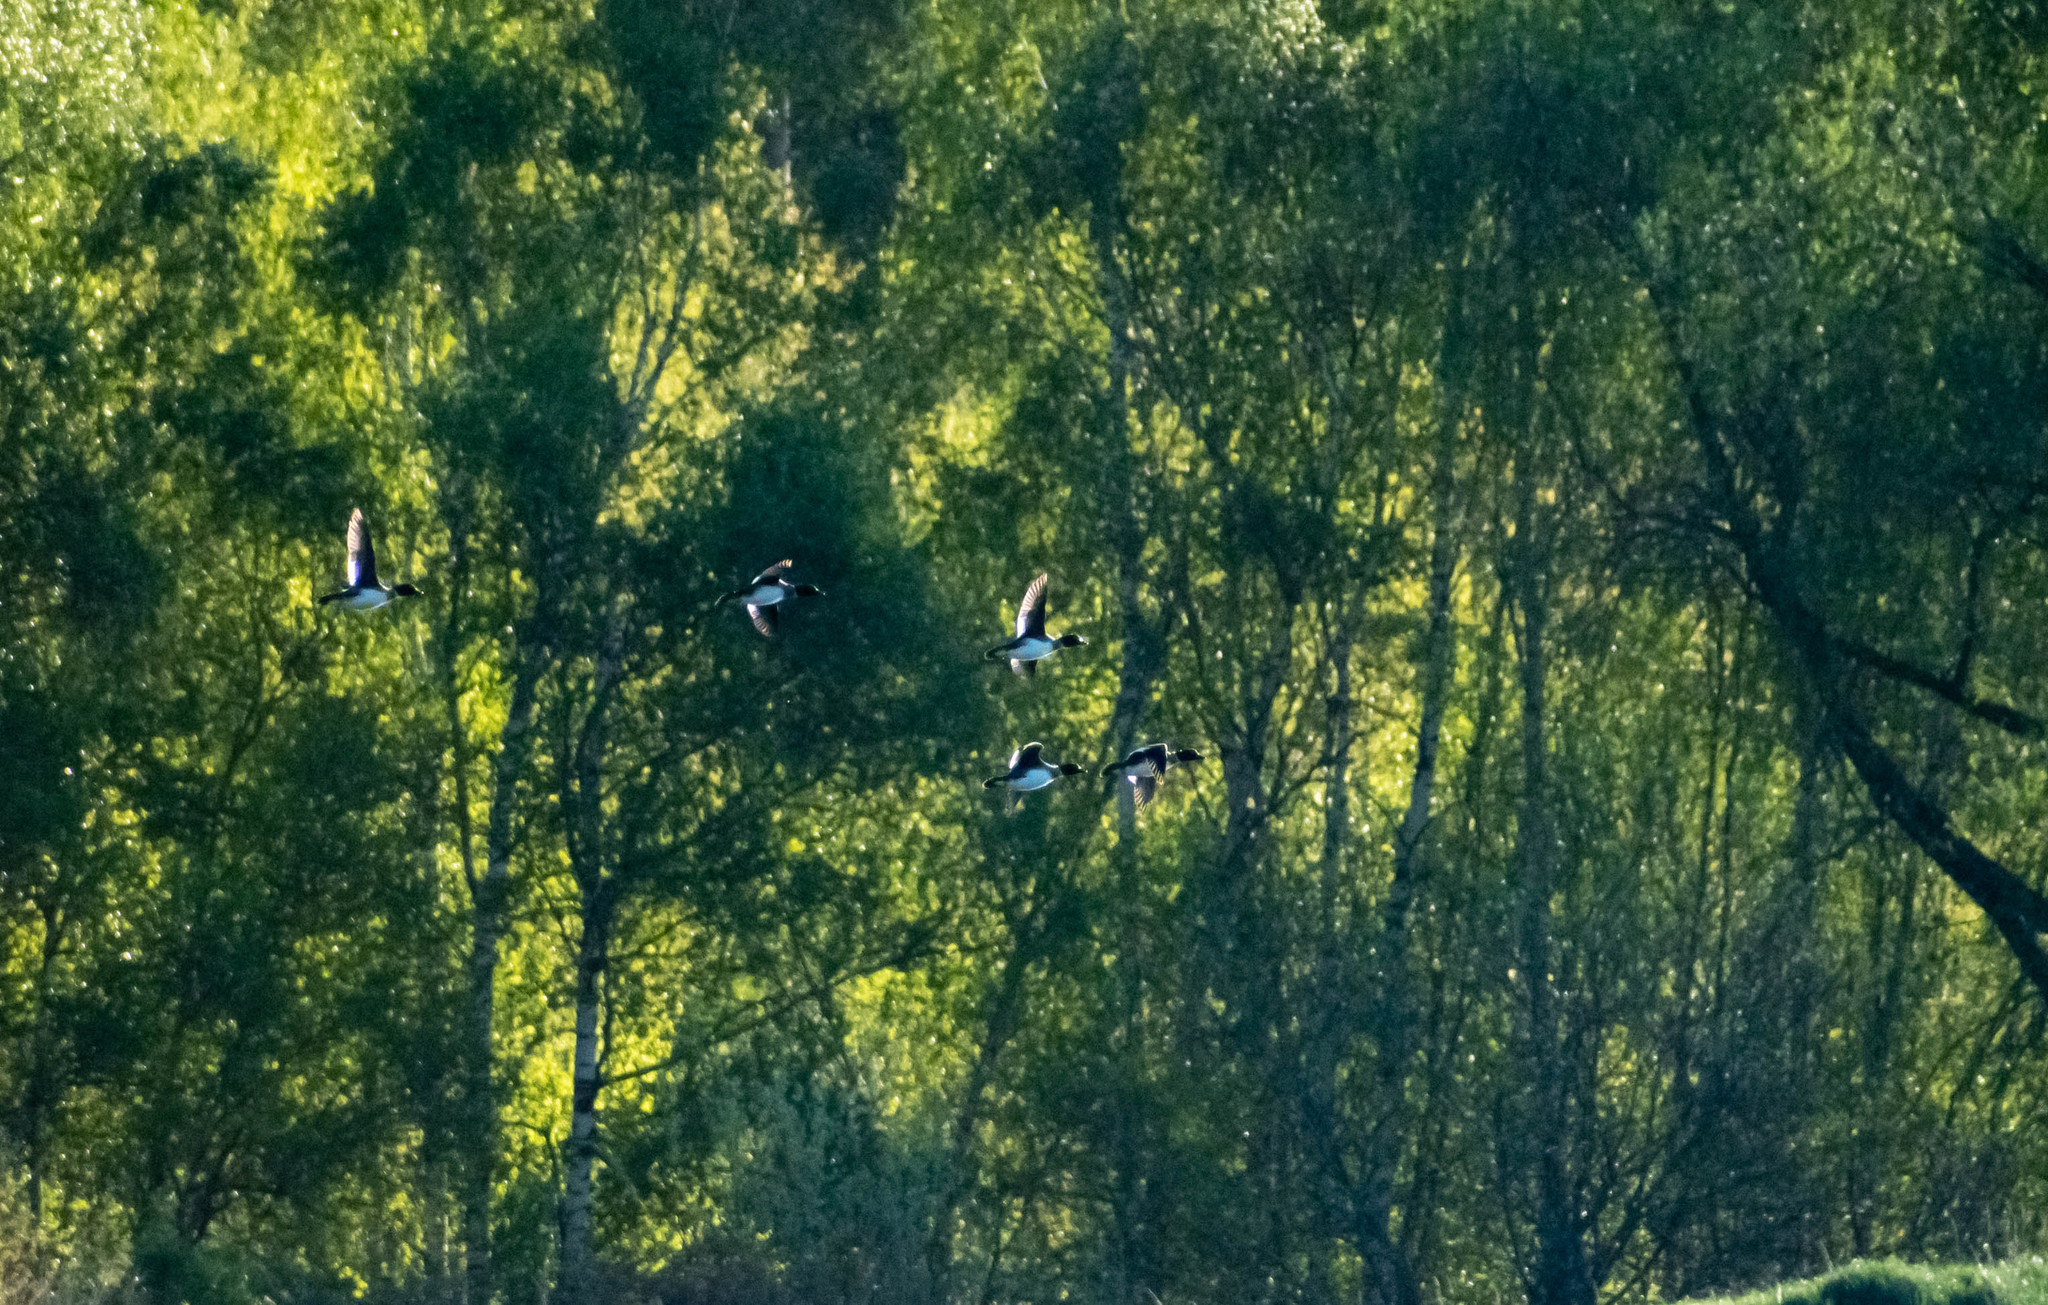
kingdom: Animalia
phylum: Chordata
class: Aves
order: Anseriformes
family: Anatidae
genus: Bucephala
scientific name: Bucephala clangula
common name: Common goldeneye
